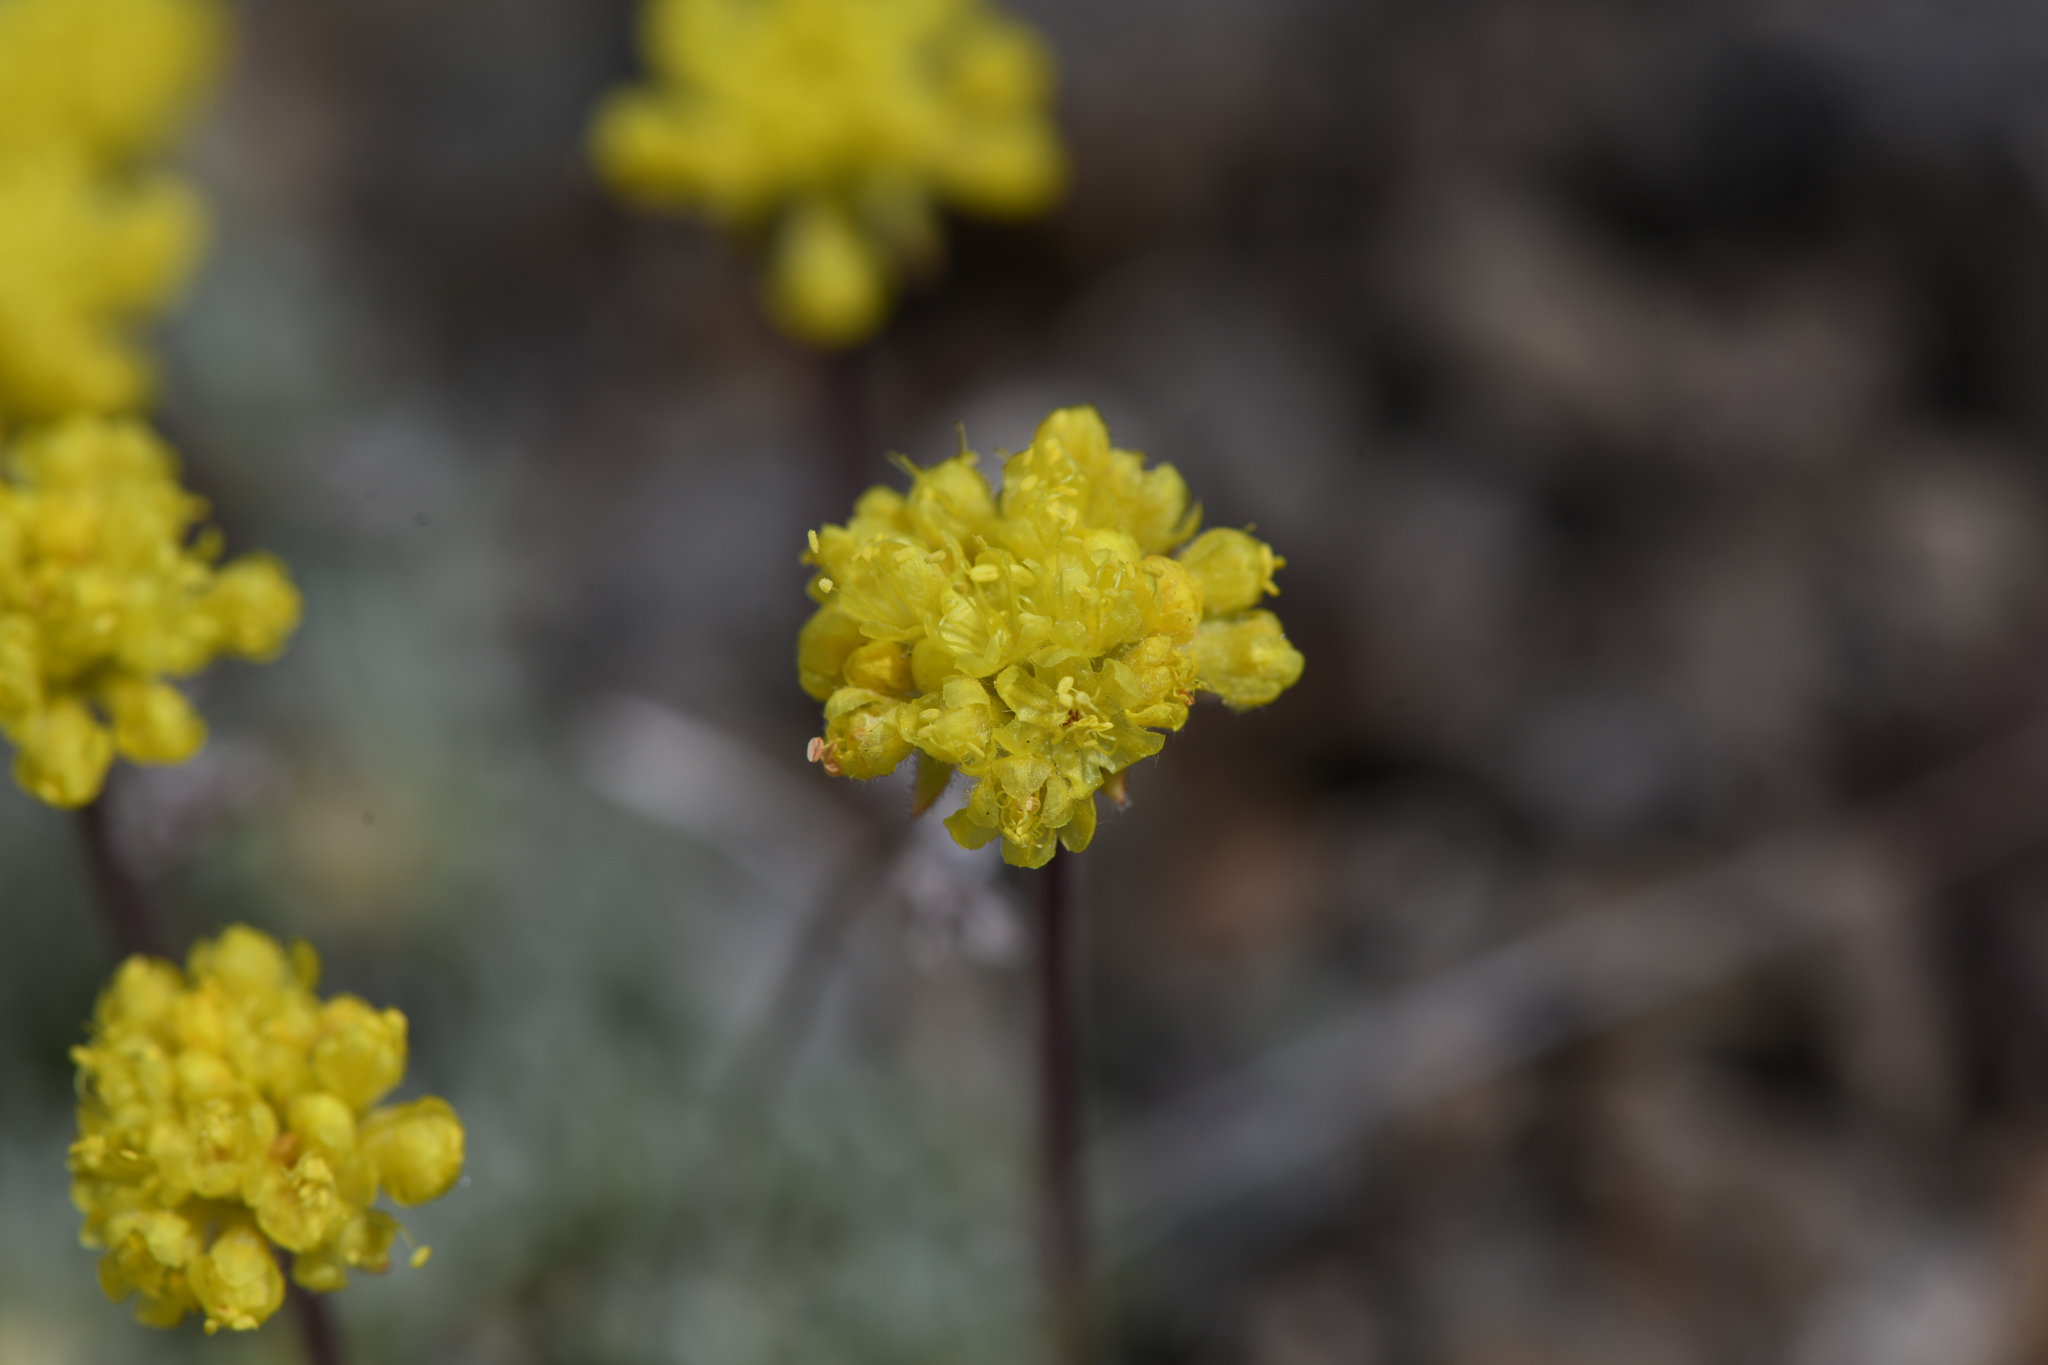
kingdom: Plantae
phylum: Tracheophyta
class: Magnoliopsida
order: Caryophyllales
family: Polygonaceae
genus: Eriogonum
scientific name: Eriogonum caespitosum
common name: Matted wild buckwheat
